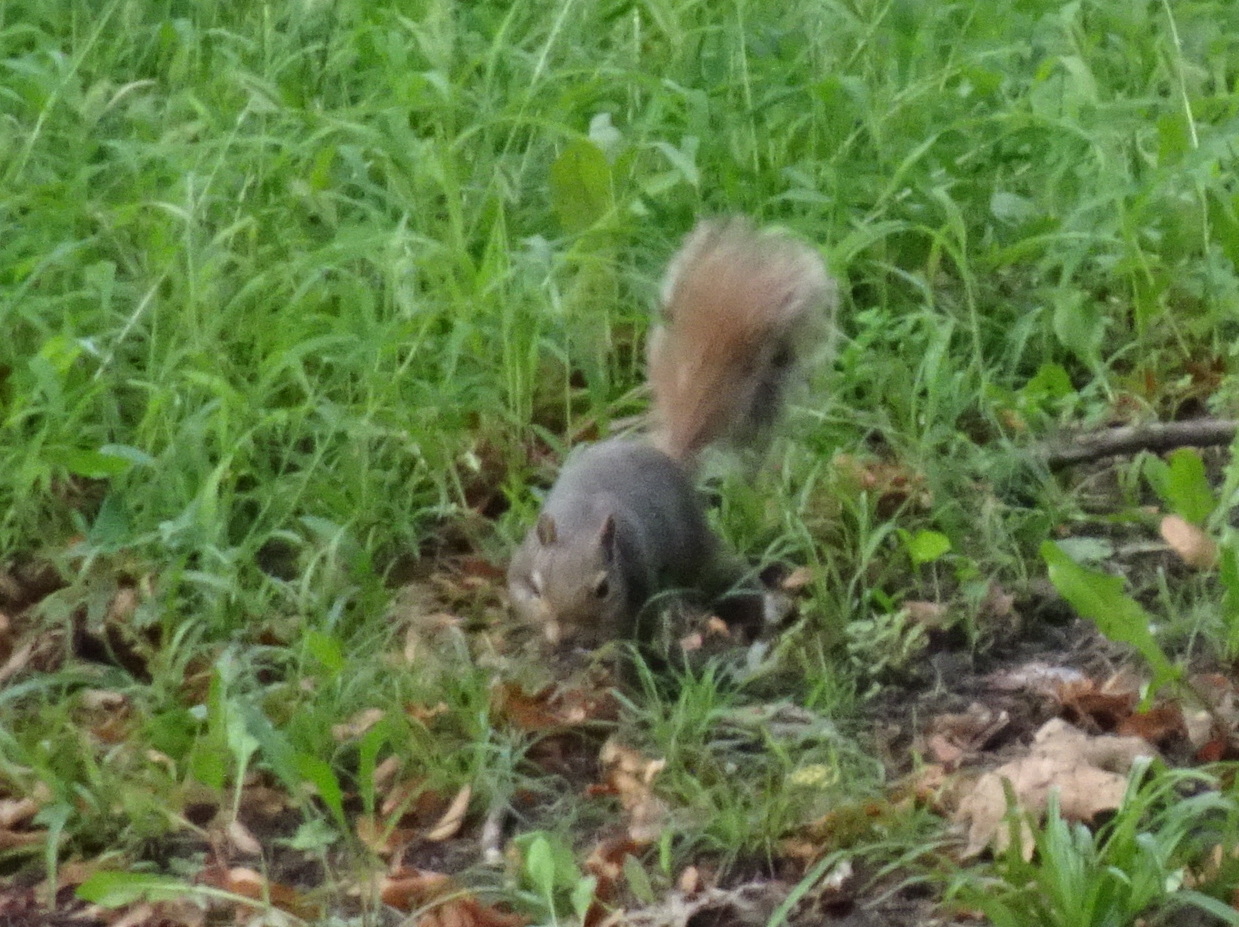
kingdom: Animalia
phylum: Chordata
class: Mammalia
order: Rodentia
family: Sciuridae
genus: Sciurus
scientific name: Sciurus carolinensis
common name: Eastern gray squirrel
